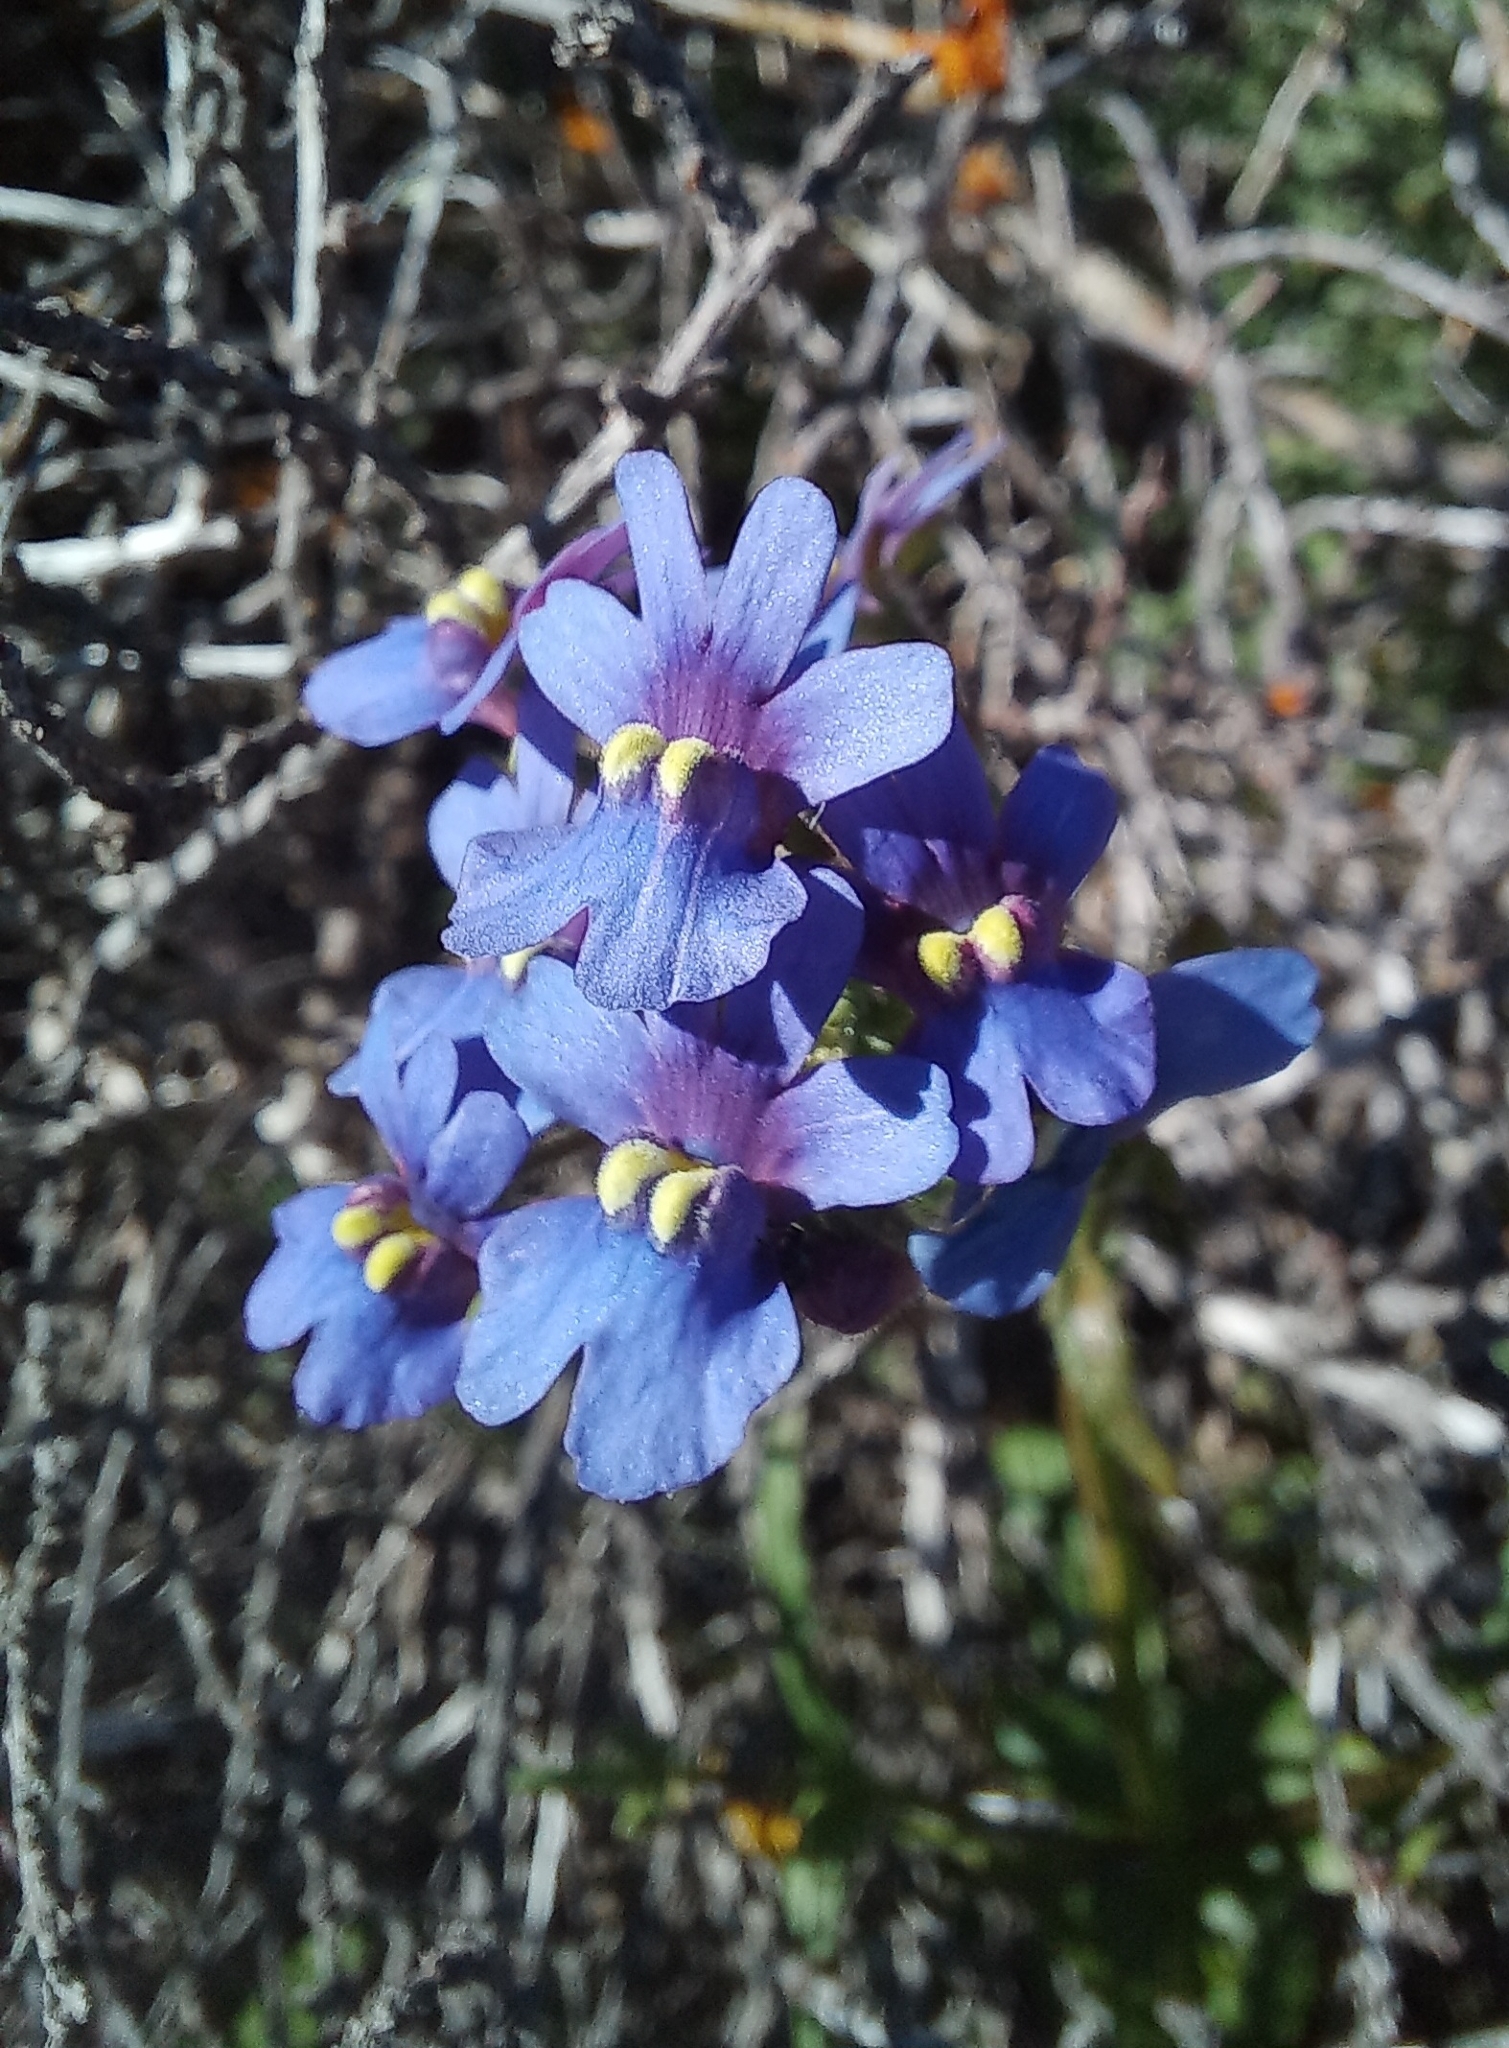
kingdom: Plantae
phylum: Tracheophyta
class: Magnoliopsida
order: Lamiales
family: Scrophulariaceae
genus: Nemesia
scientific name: Nemesia affinis
